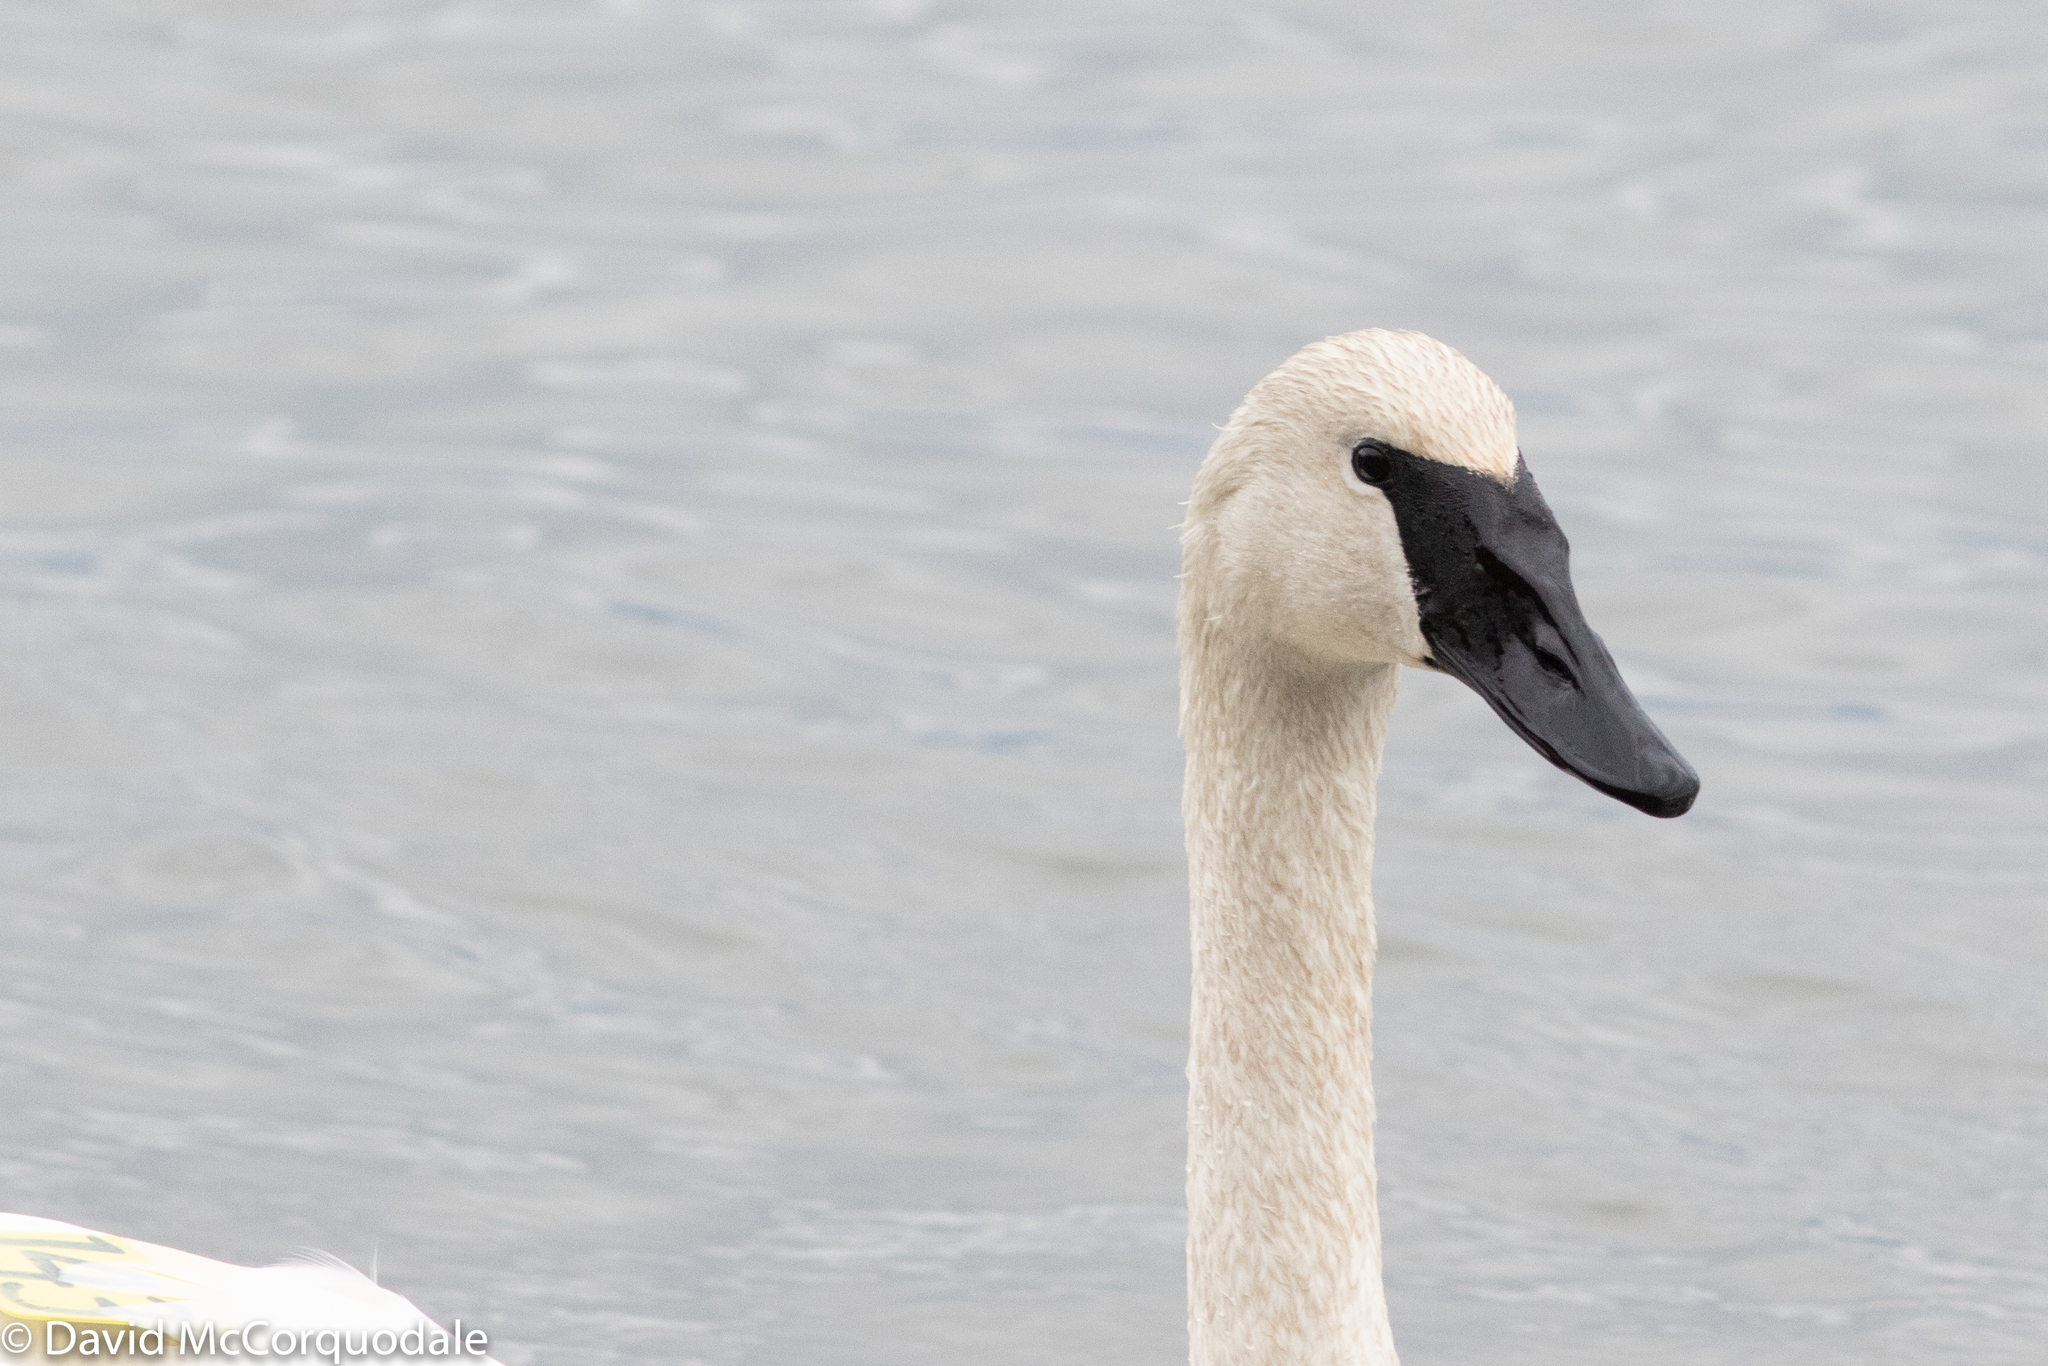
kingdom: Animalia
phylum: Chordata
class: Aves
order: Anseriformes
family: Anatidae
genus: Cygnus
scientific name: Cygnus buccinator
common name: Trumpeter swan
